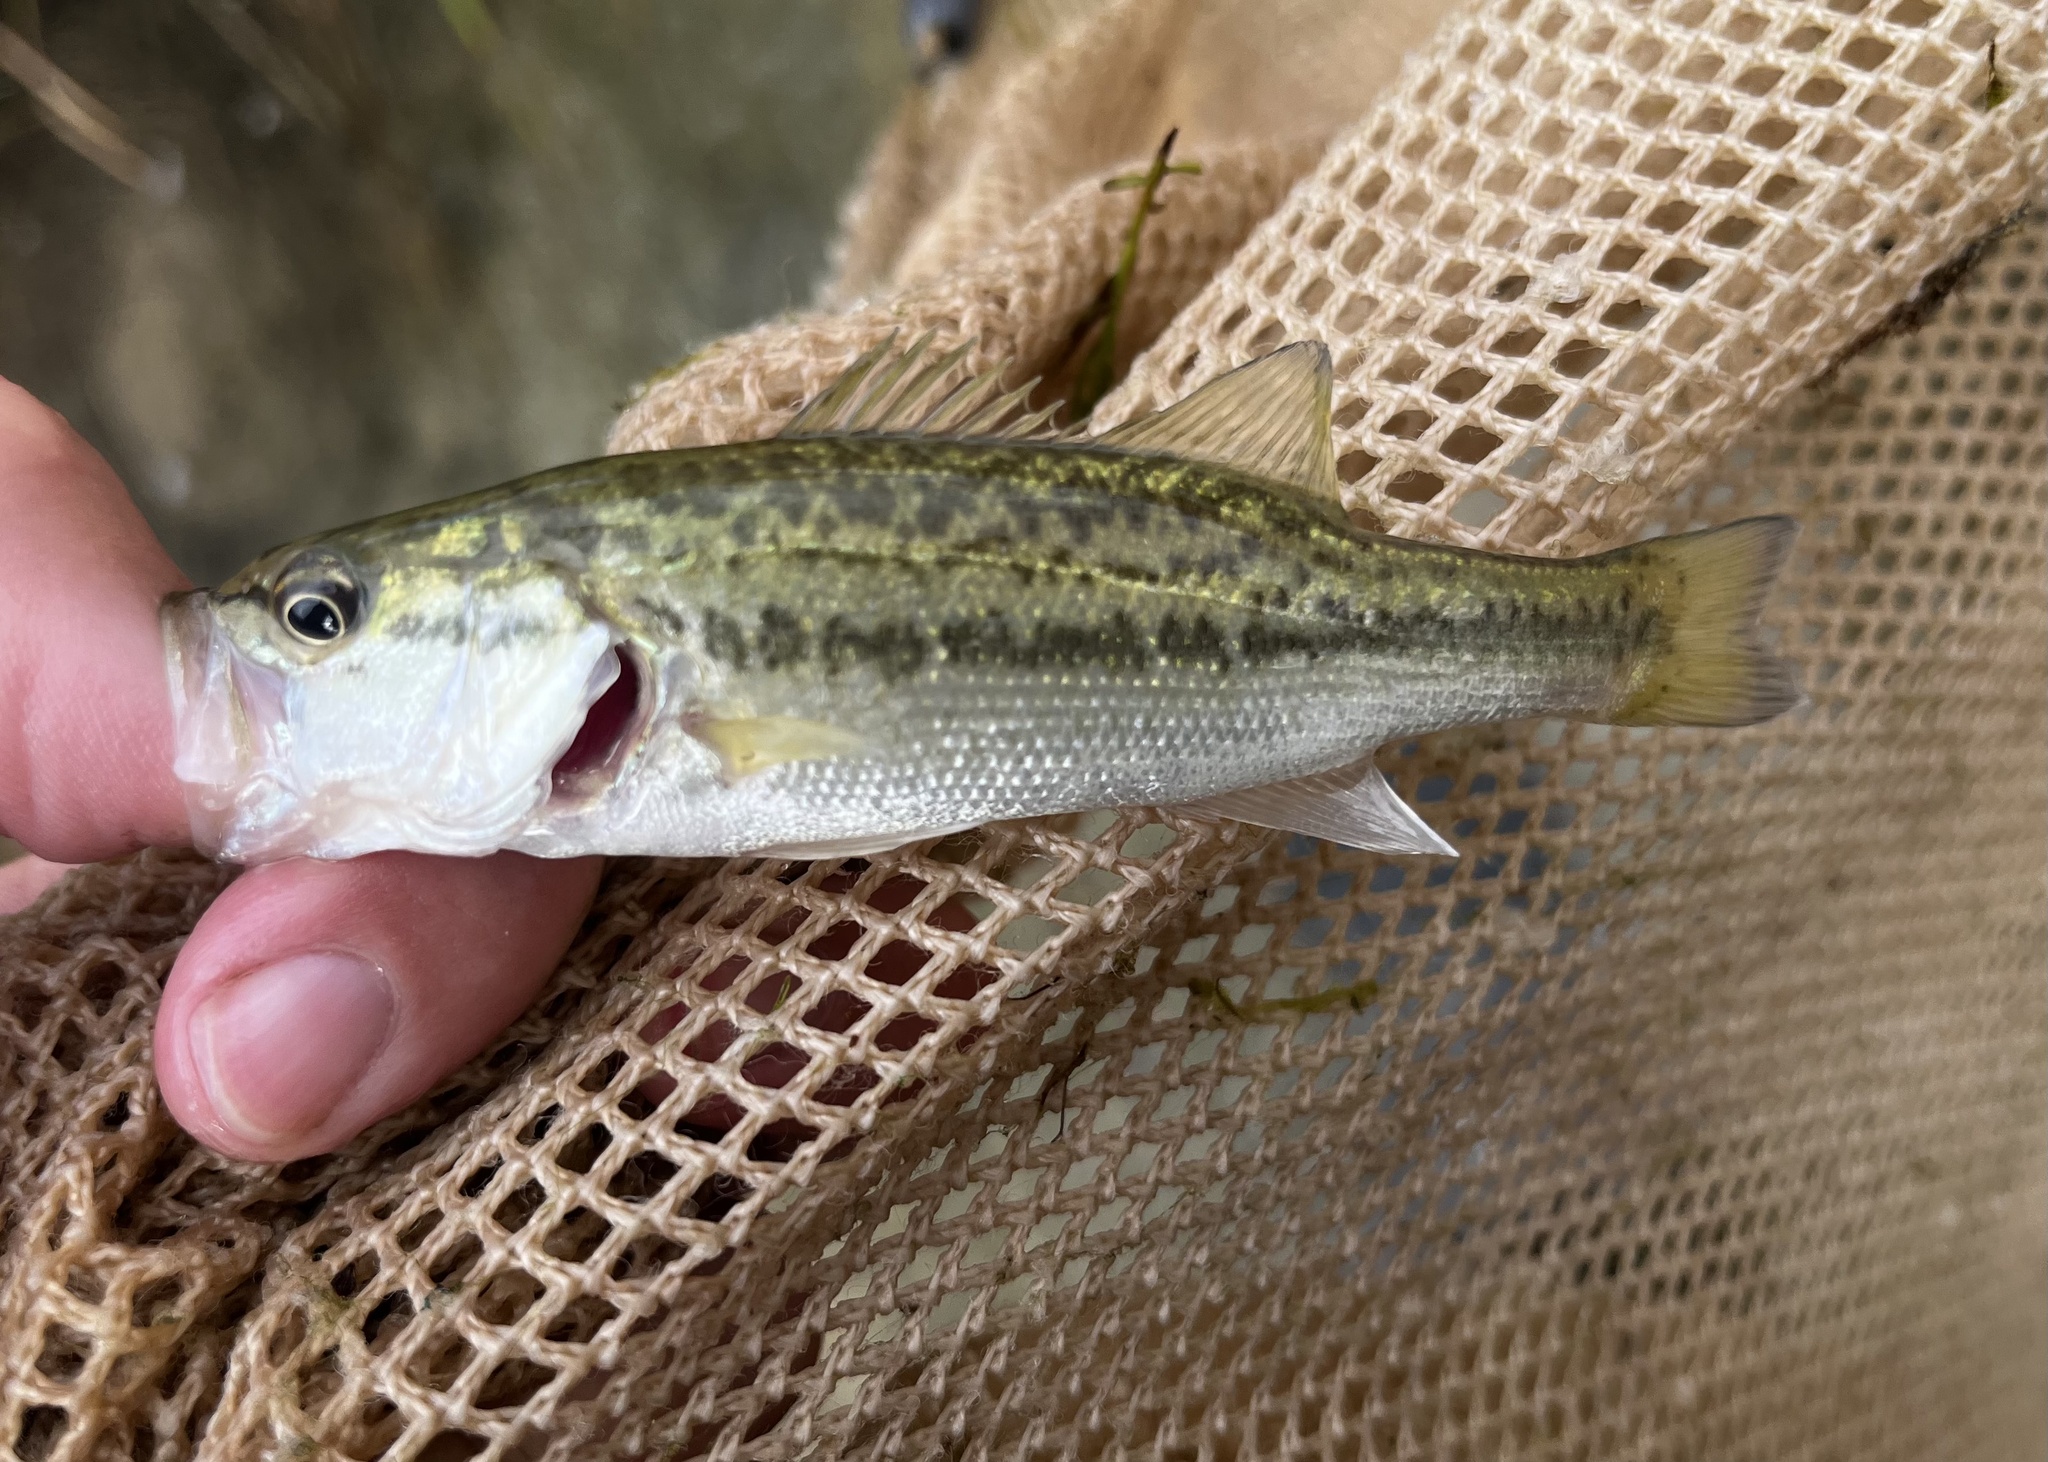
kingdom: Animalia
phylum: Chordata
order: Perciformes
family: Centrarchidae
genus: Micropterus
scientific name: Micropterus
